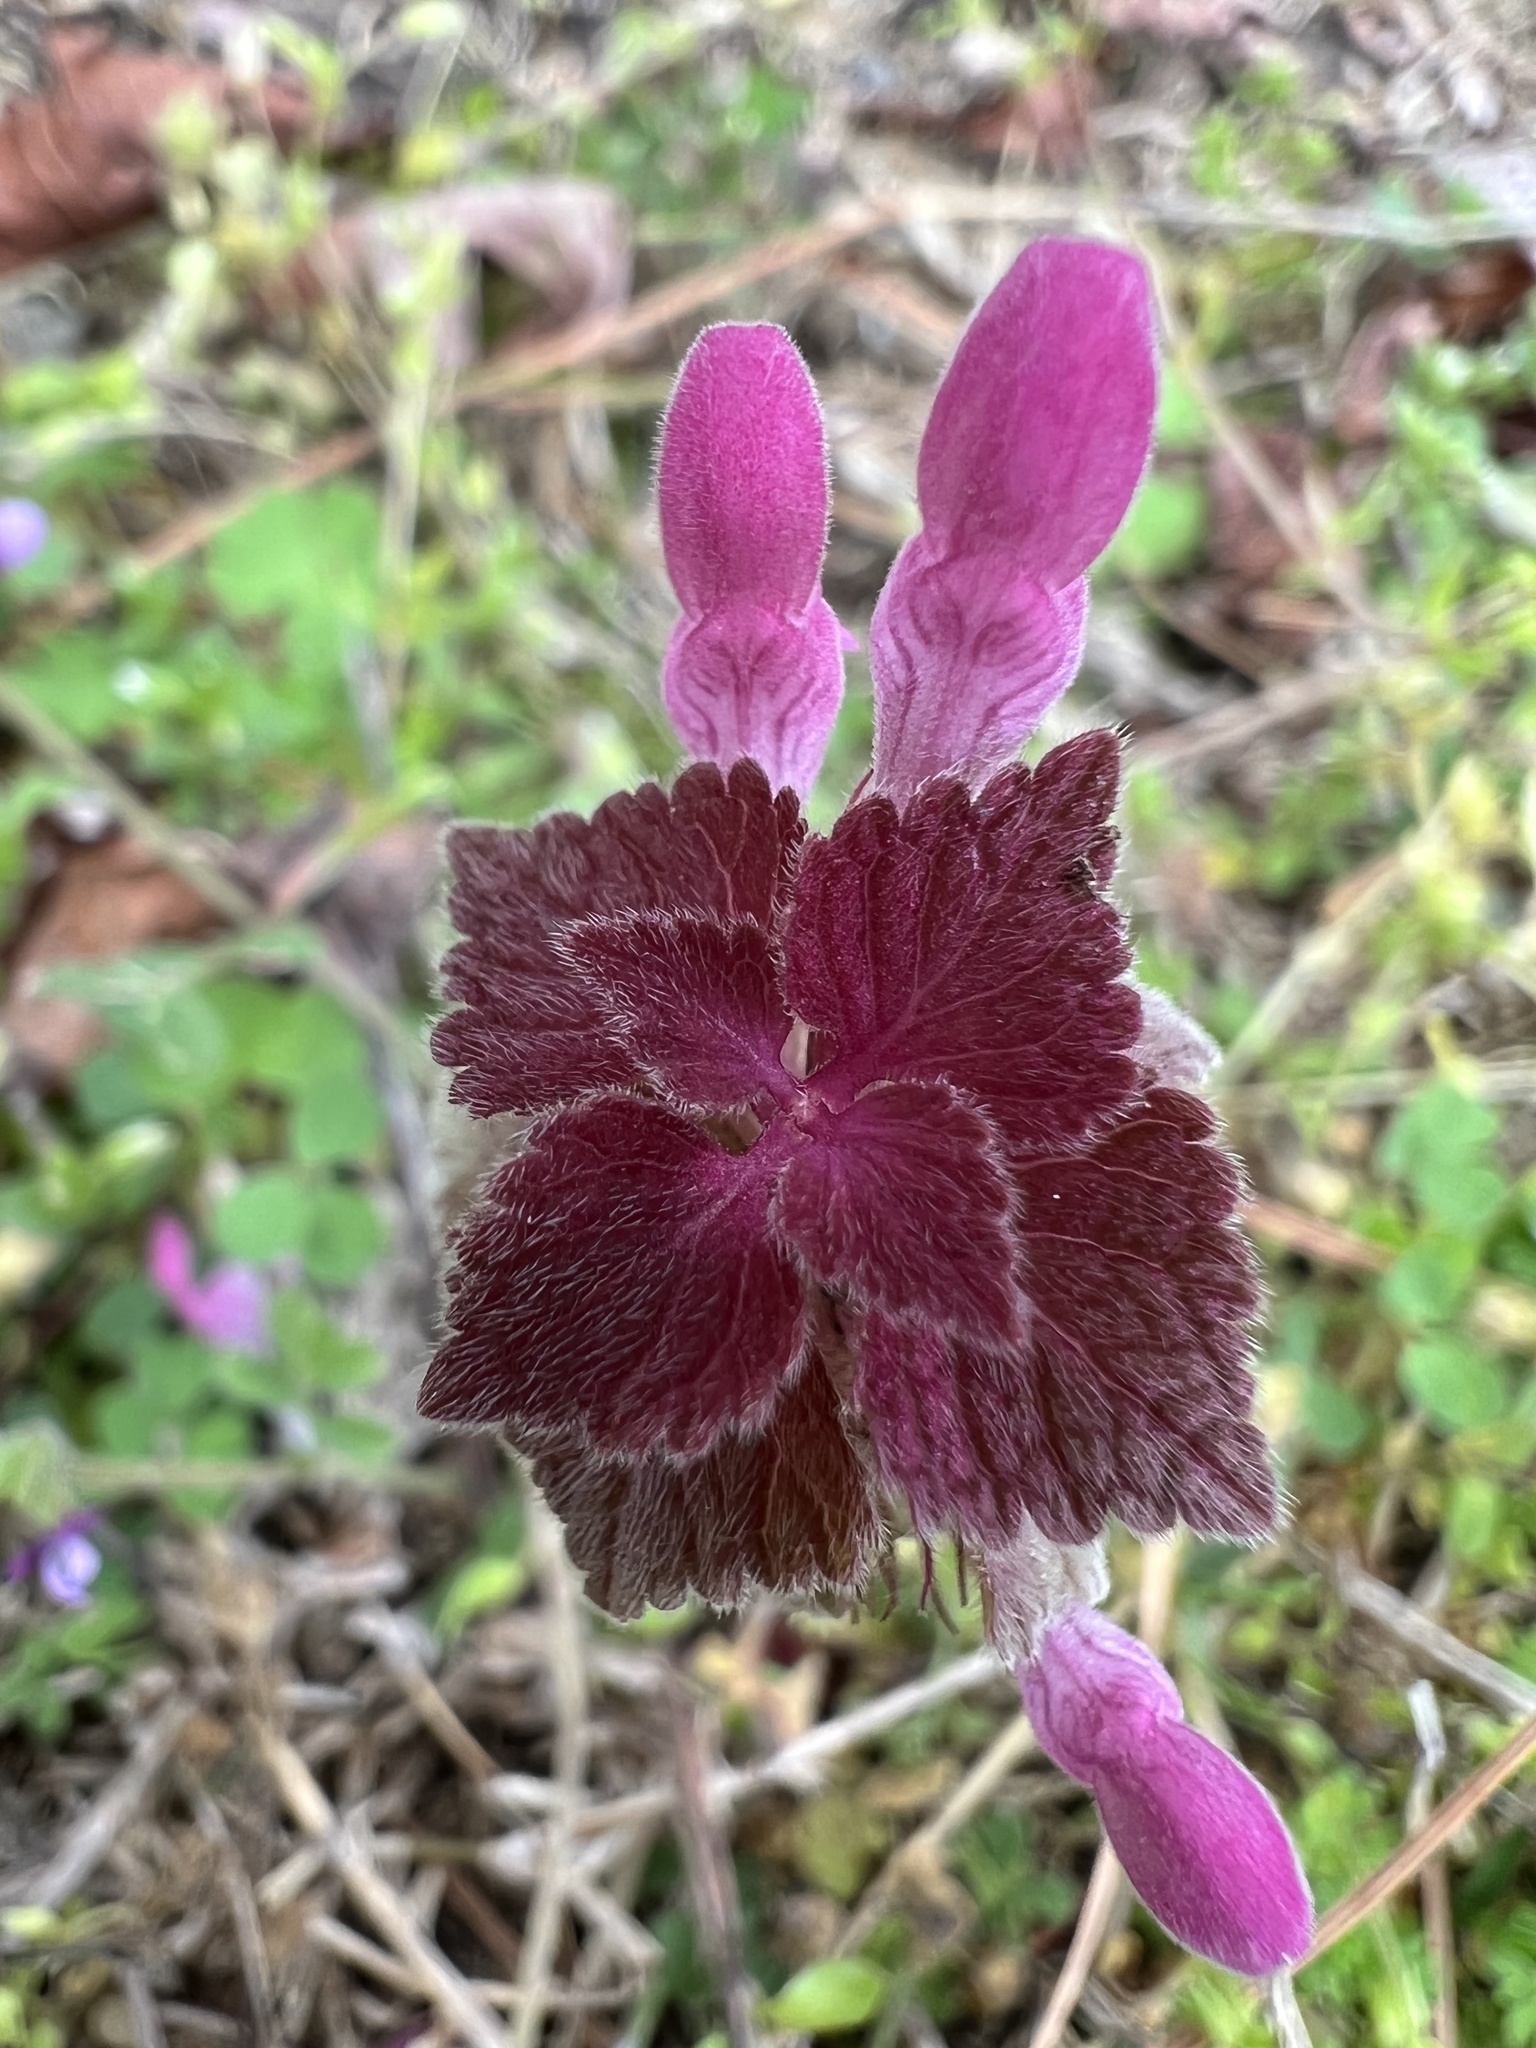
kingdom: Plantae
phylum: Tracheophyta
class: Magnoliopsida
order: Lamiales
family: Lamiaceae
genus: Lamium
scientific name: Lamium purpureum
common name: Red dead-nettle
